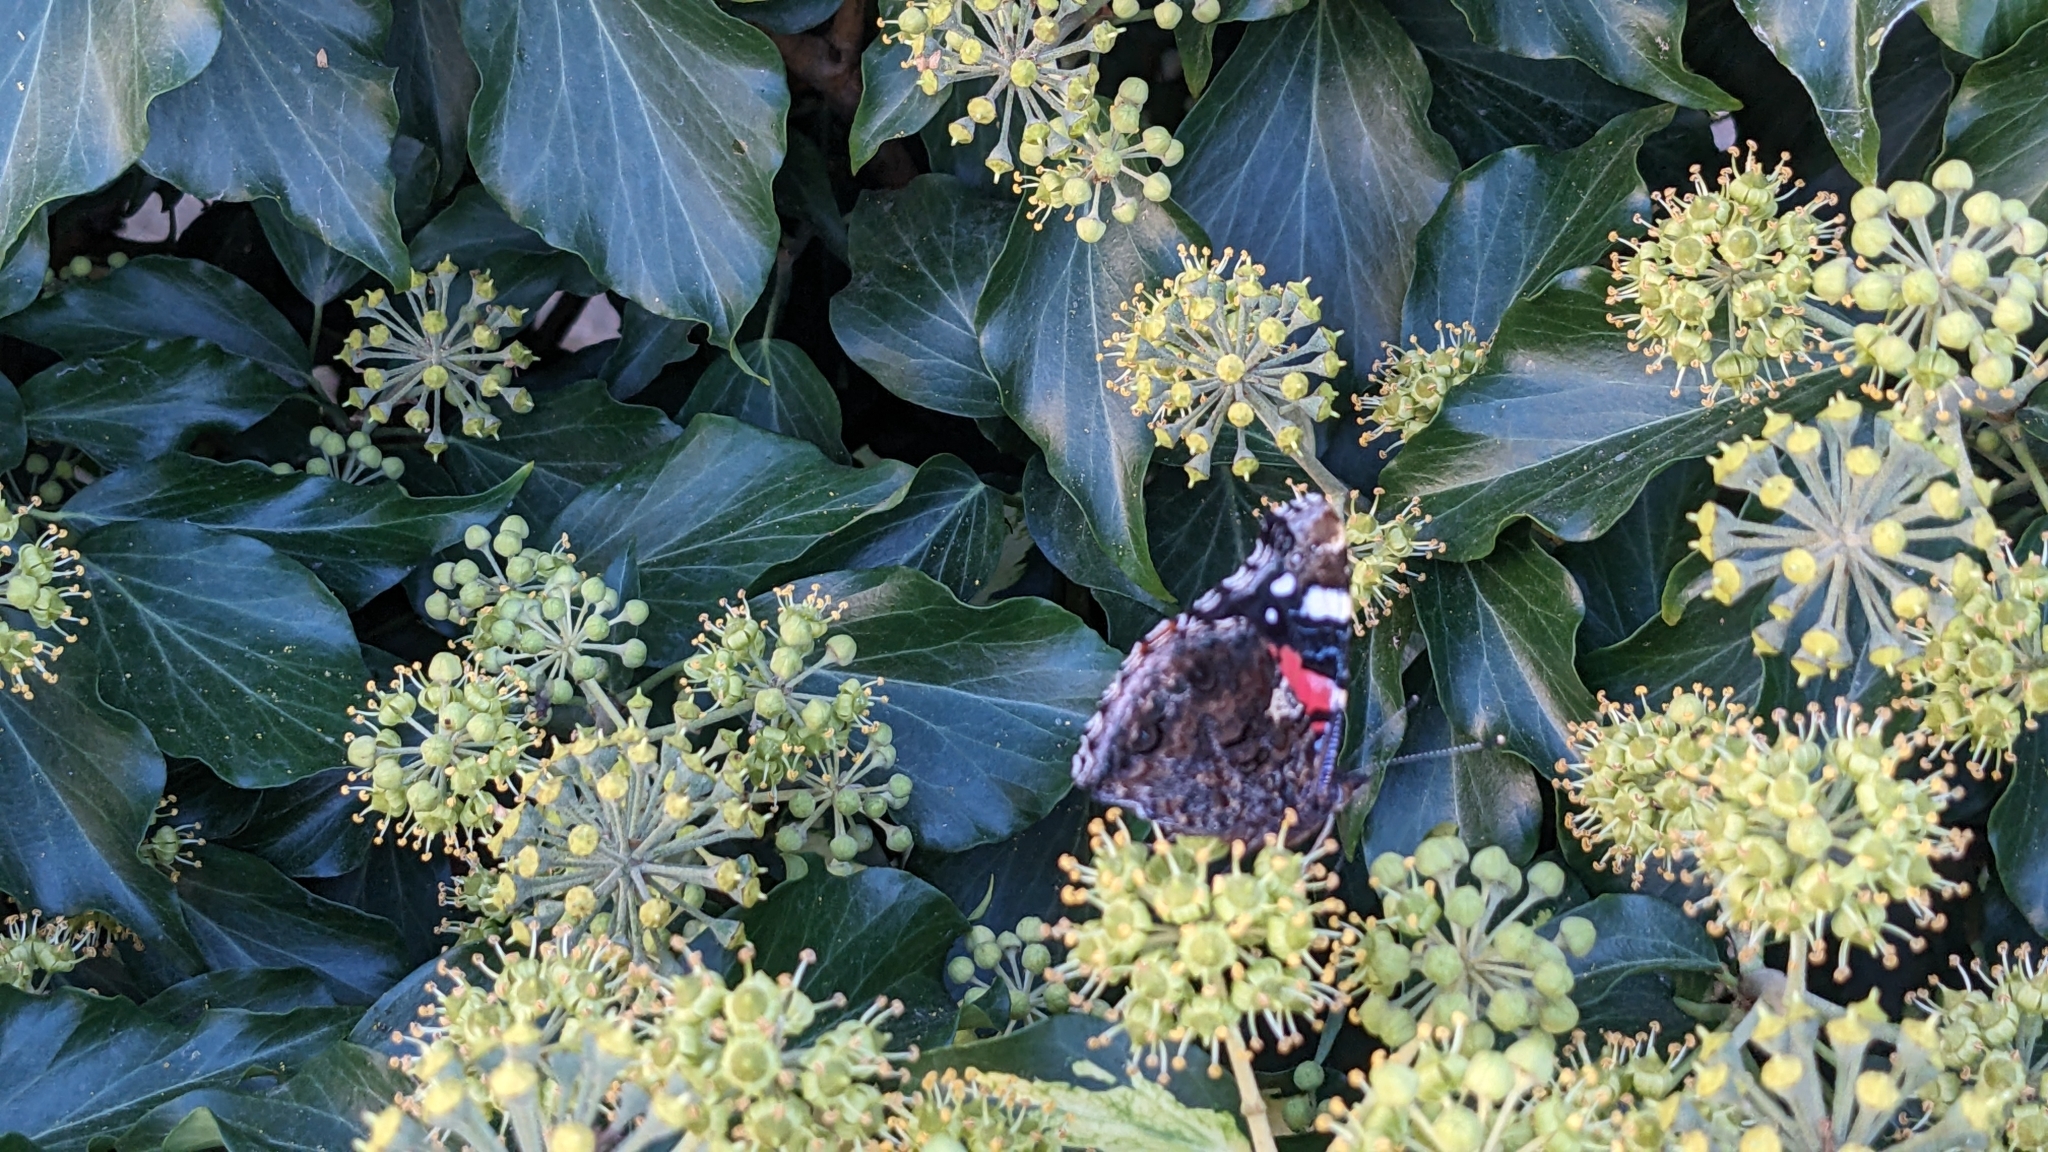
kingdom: Animalia
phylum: Arthropoda
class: Insecta
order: Lepidoptera
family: Nymphalidae
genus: Vanessa
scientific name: Vanessa atalanta
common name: Red admiral
